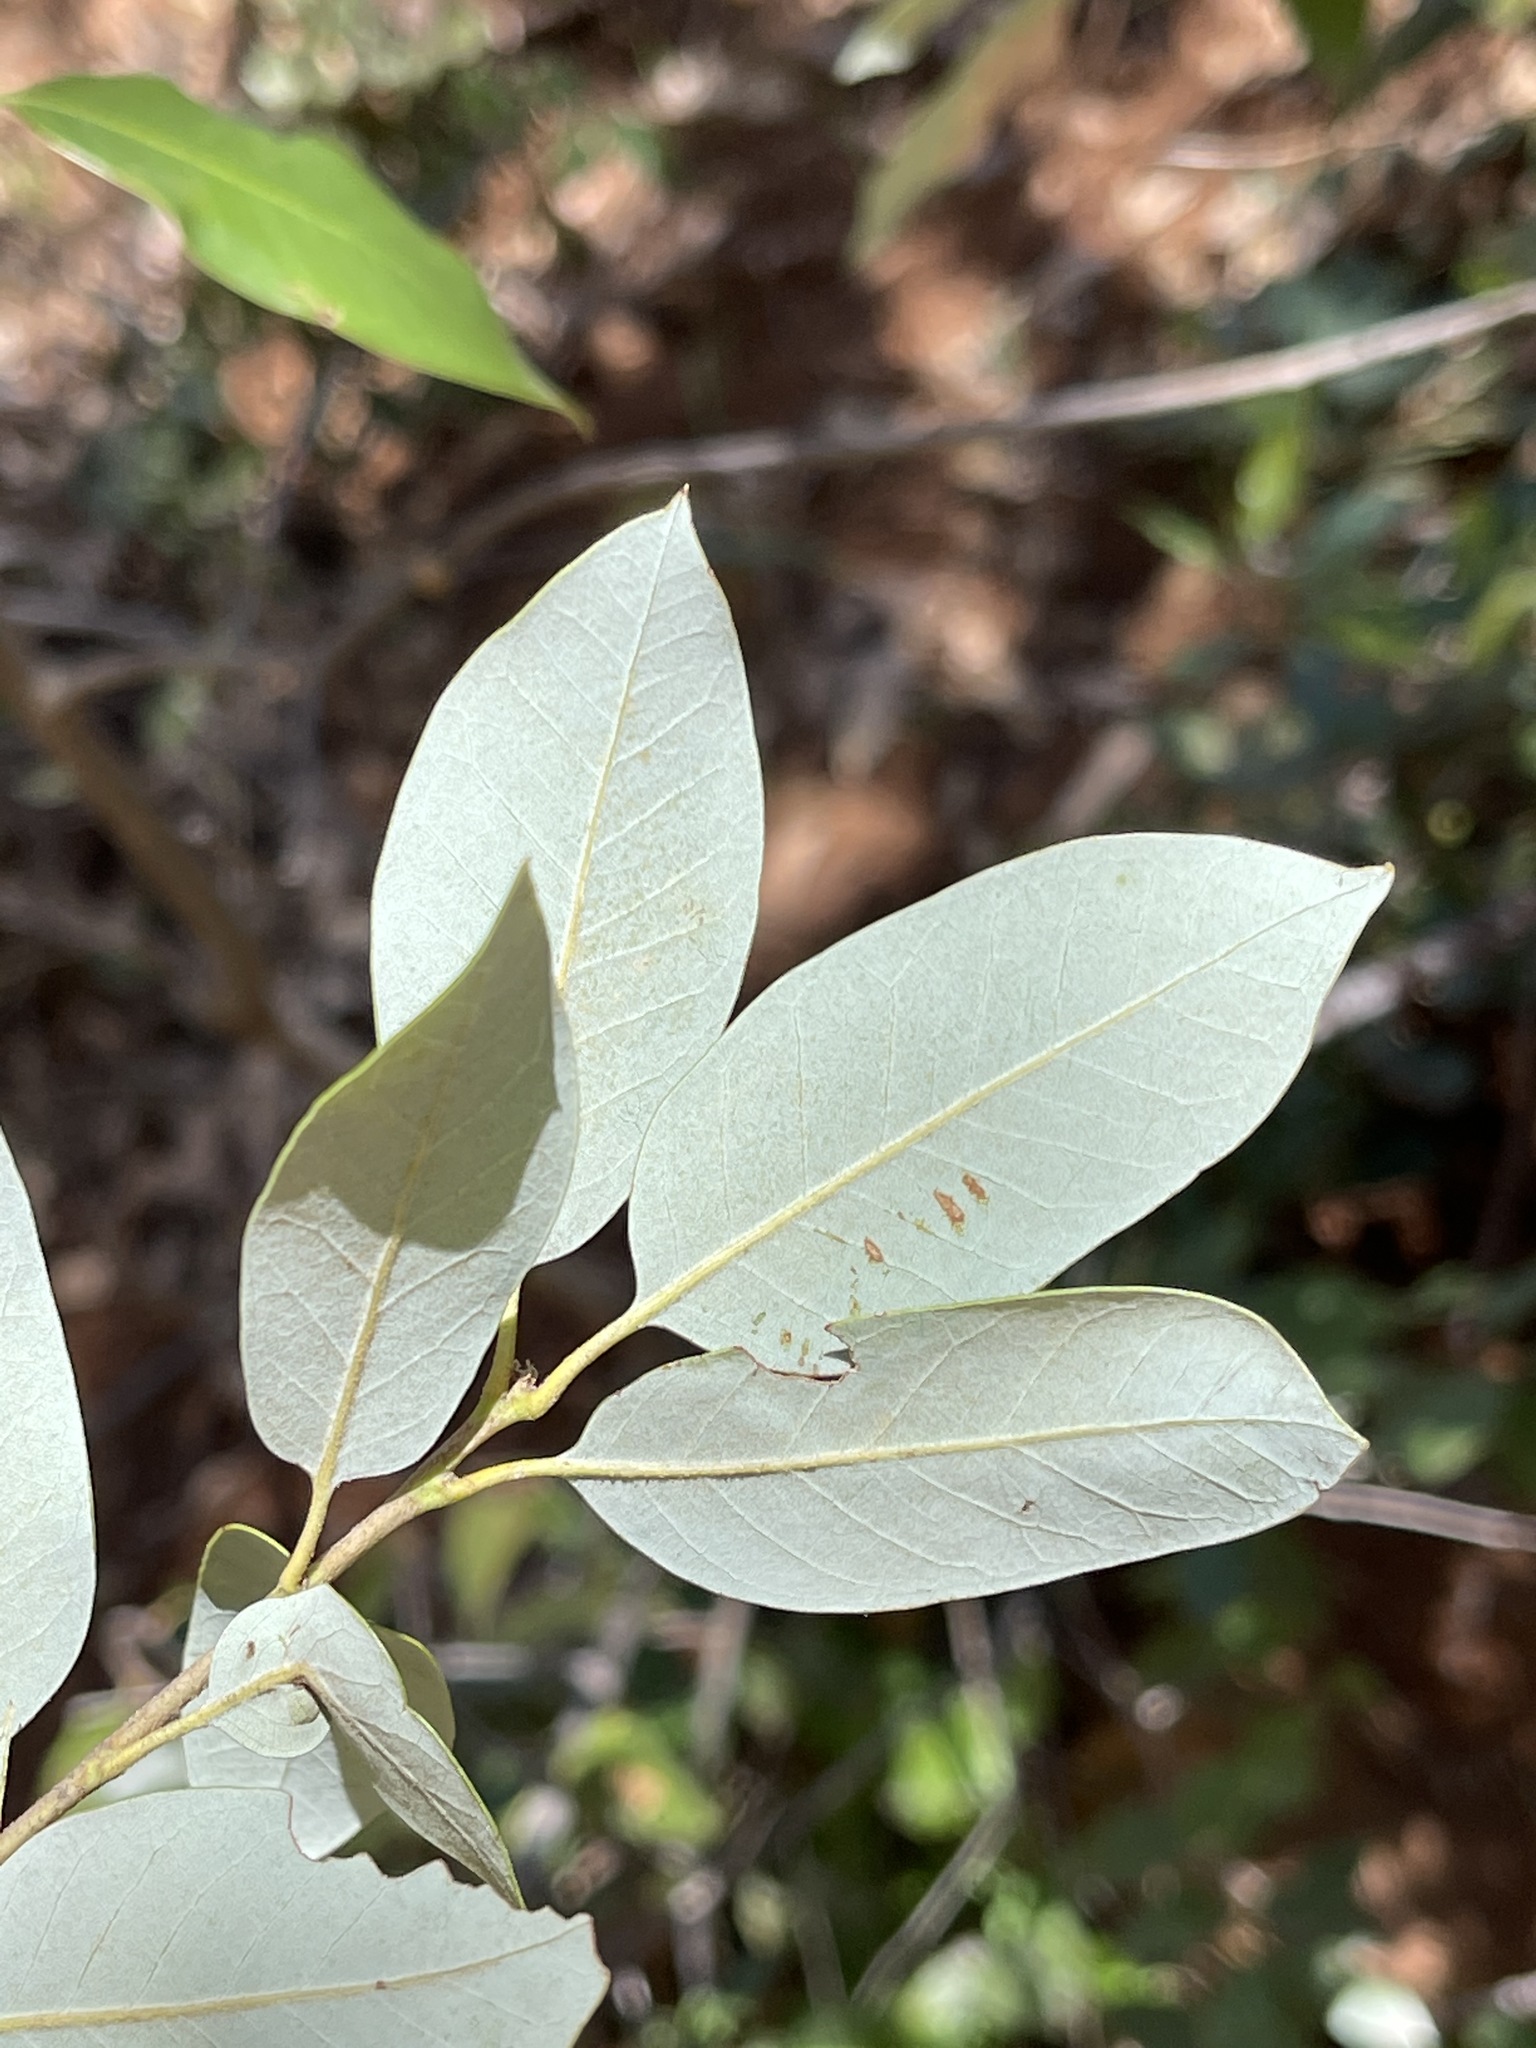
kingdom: Plantae
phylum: Tracheophyta
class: Magnoliopsida
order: Fagales
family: Fagaceae
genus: Quercus
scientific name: Quercus chrysolepis
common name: Canyon live oak
